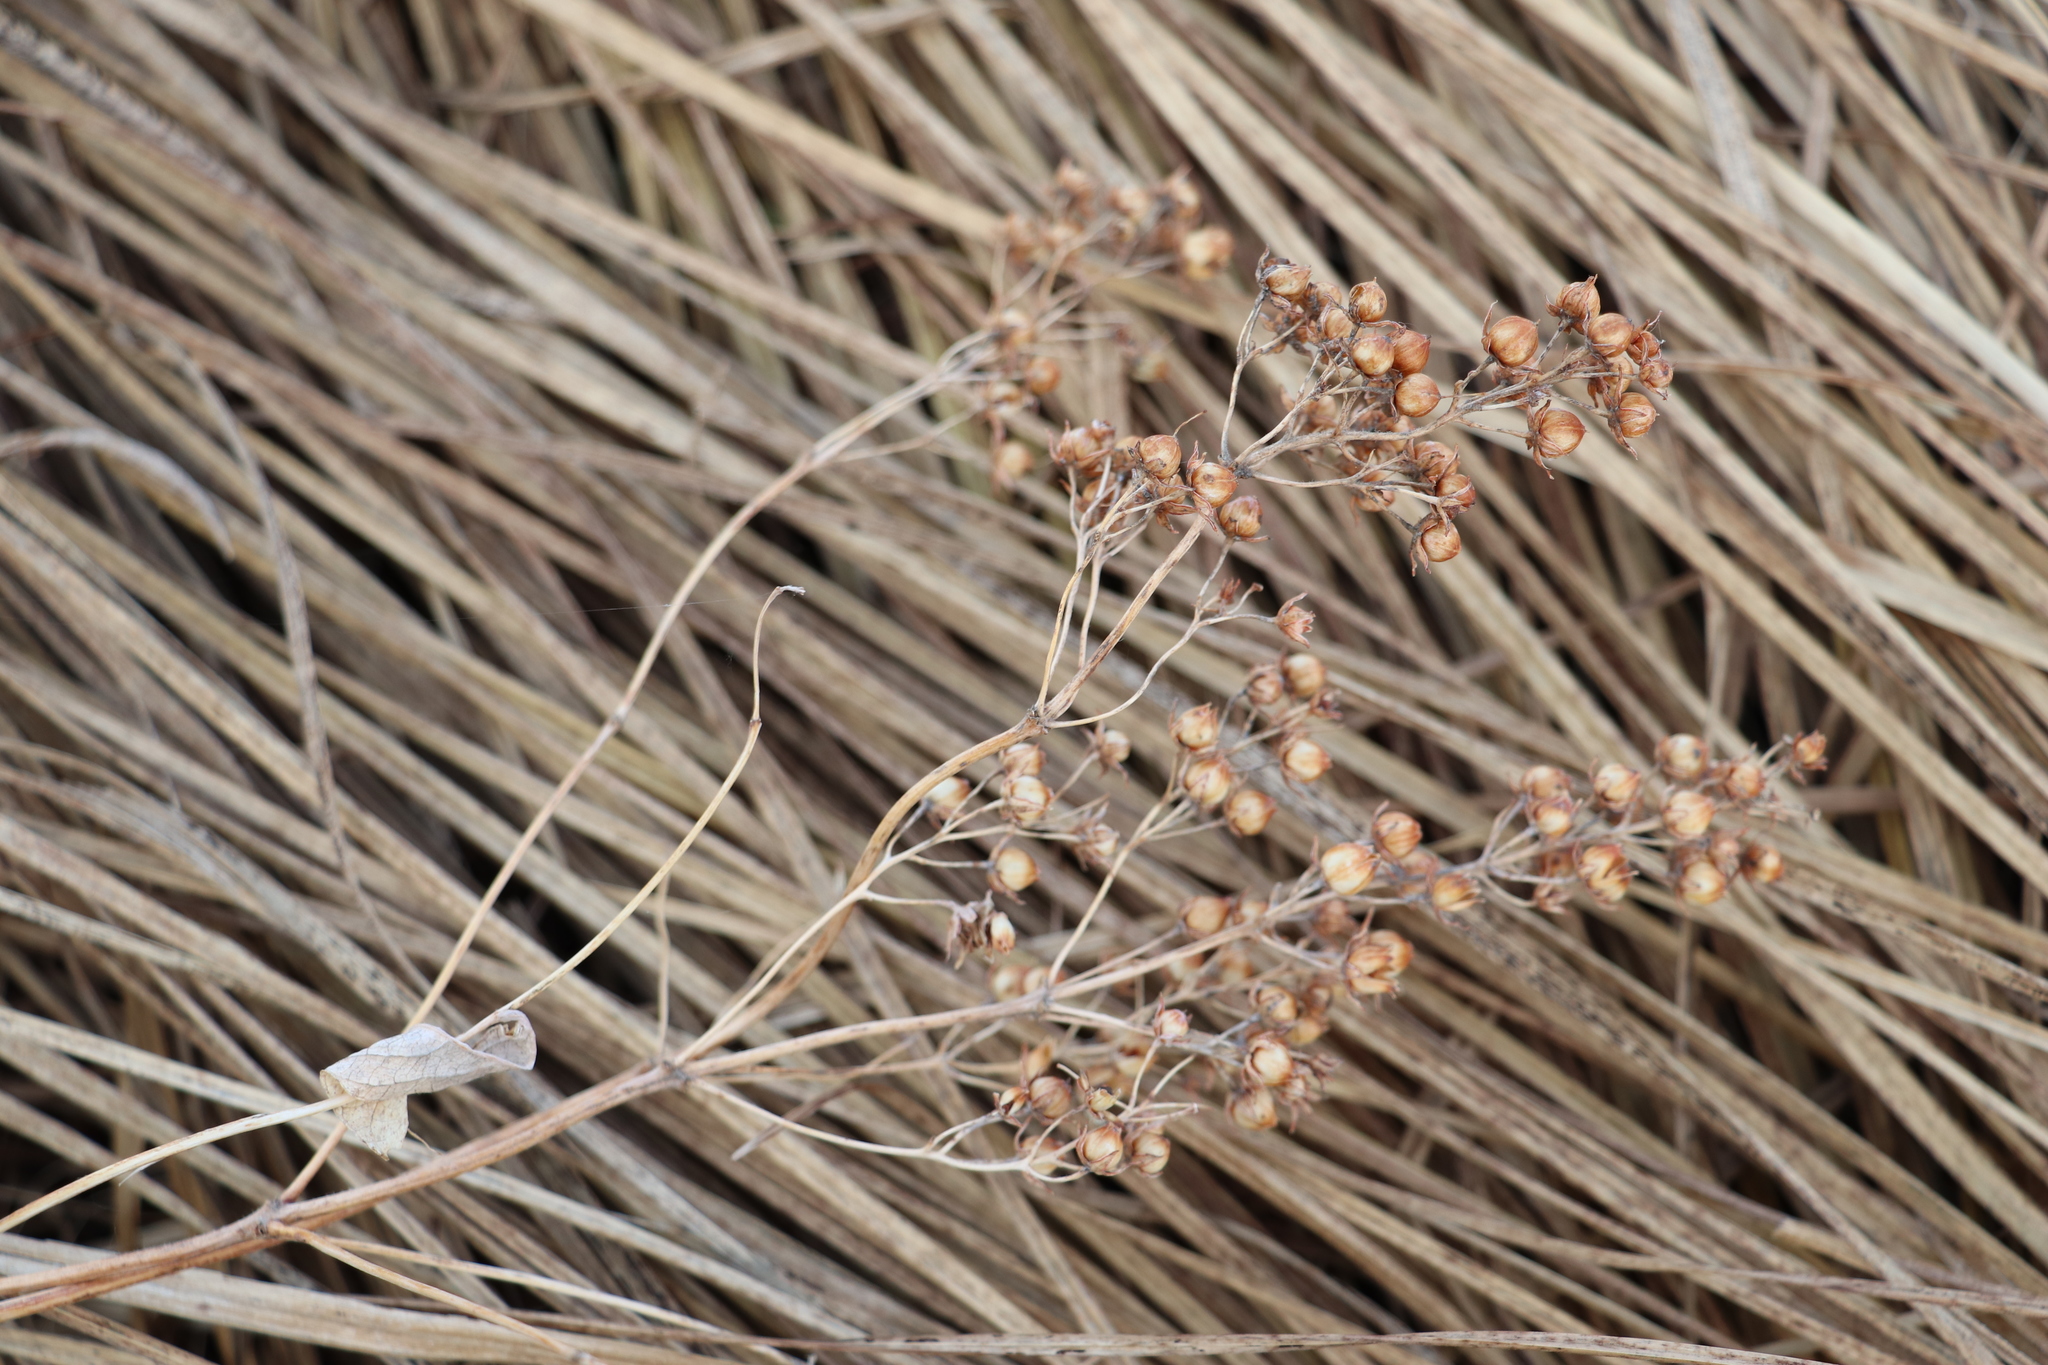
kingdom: Plantae
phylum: Tracheophyta
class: Magnoliopsida
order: Ericales
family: Primulaceae
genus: Lysimachia
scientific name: Lysimachia vulgaris
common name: Yellow loosestrife
